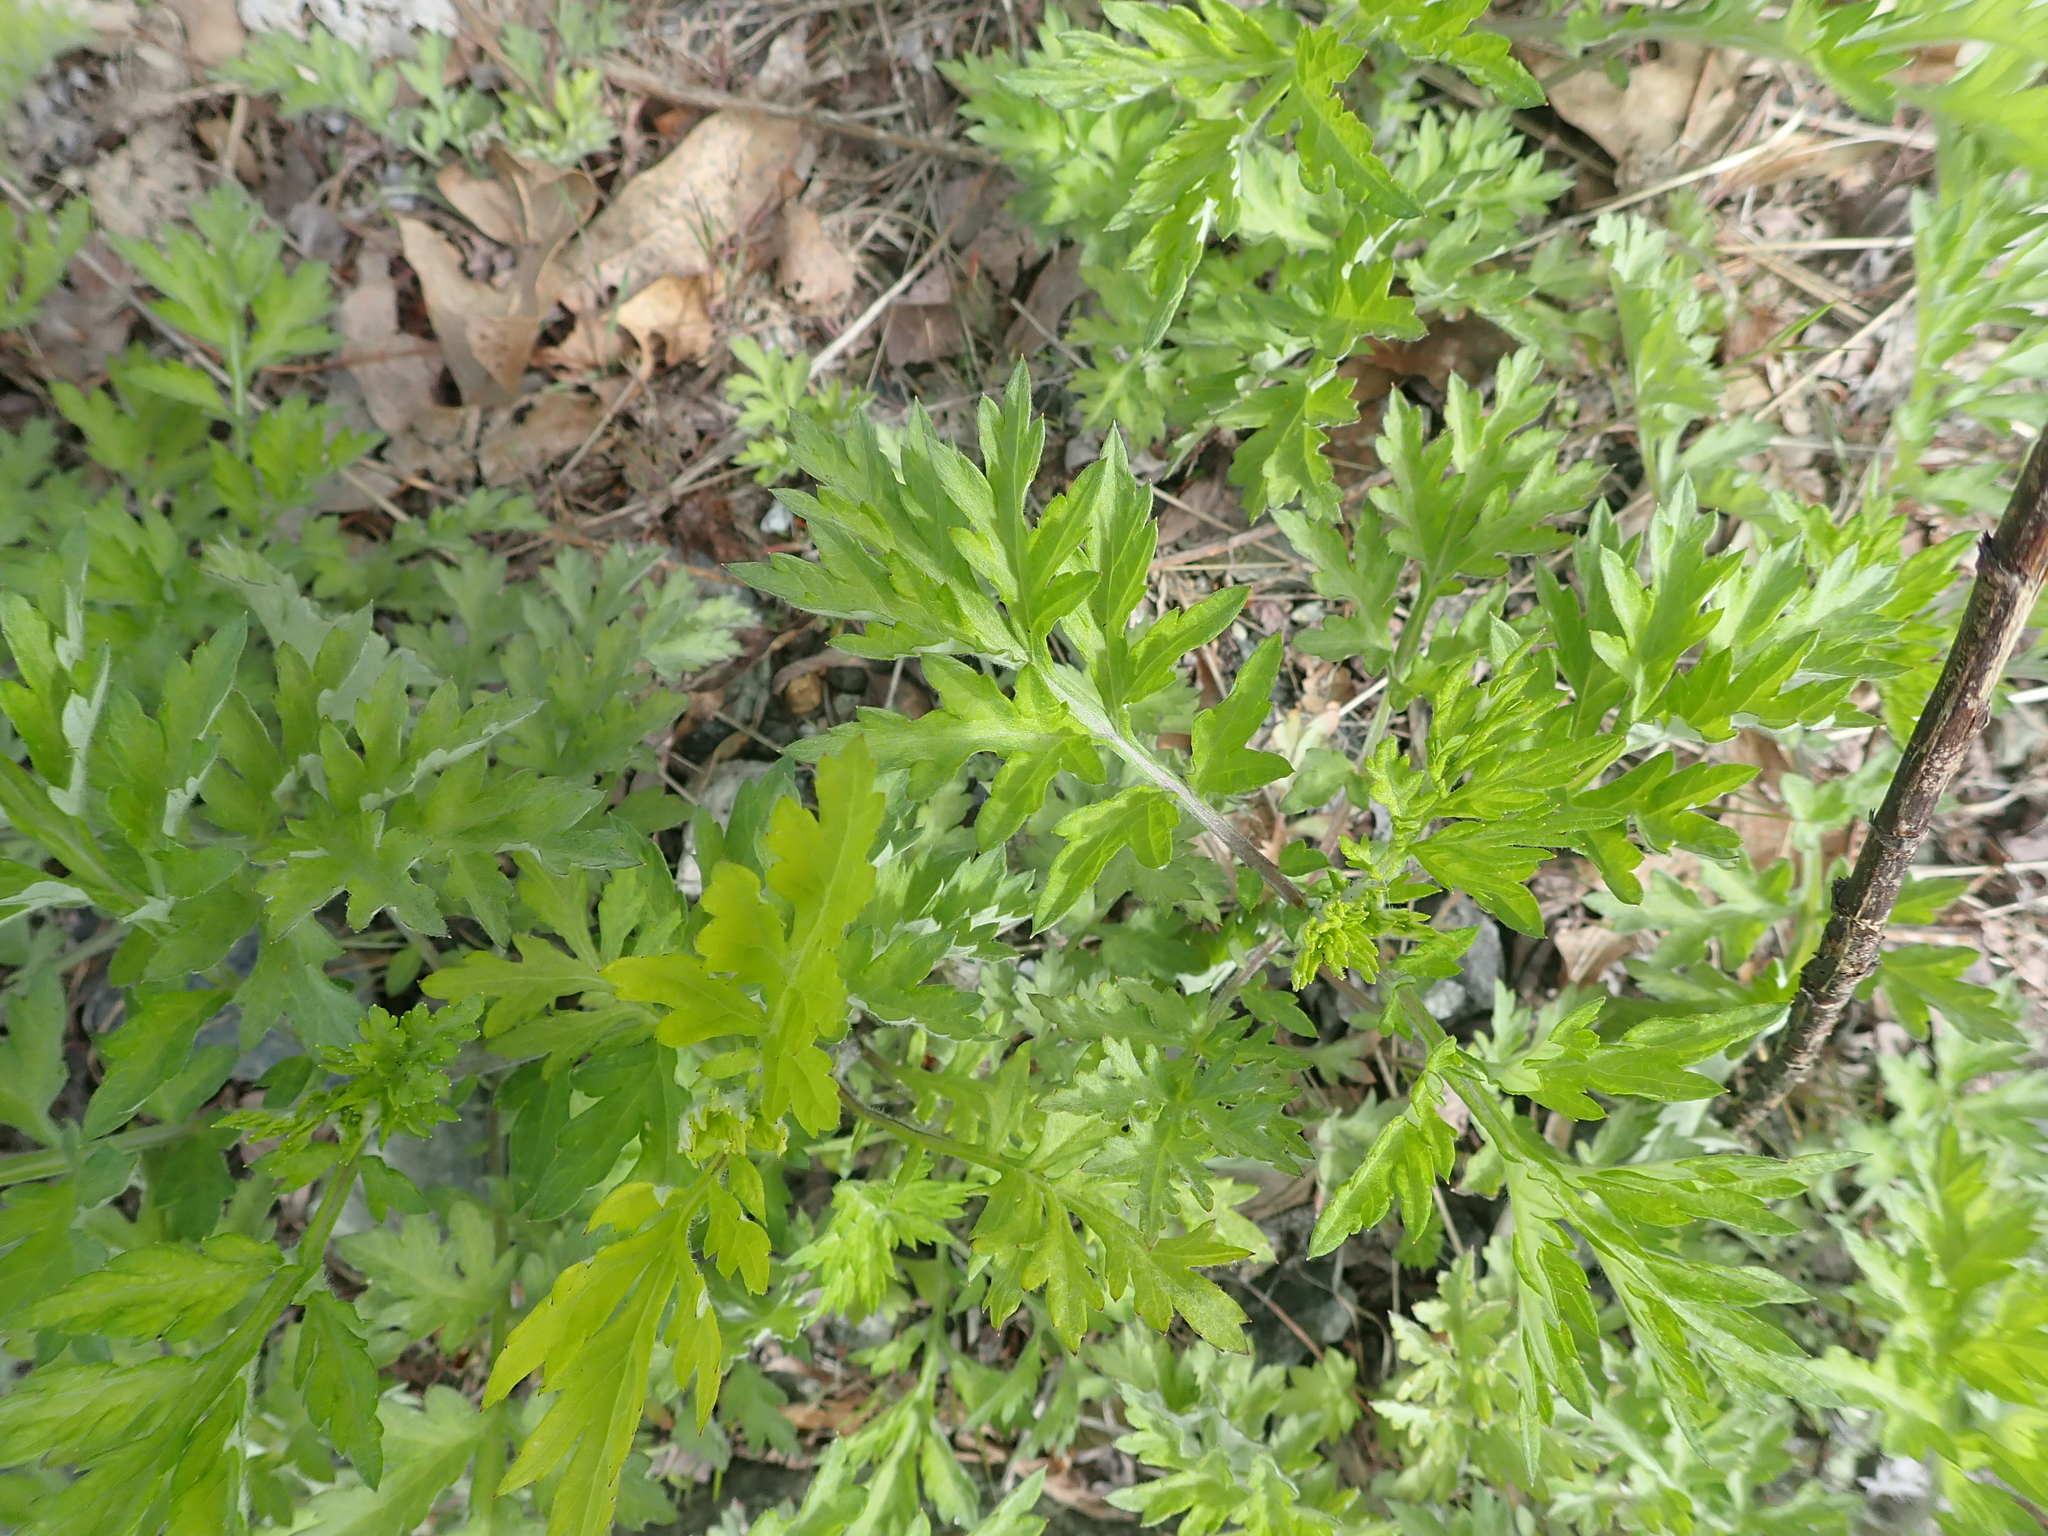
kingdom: Plantae
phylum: Tracheophyta
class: Magnoliopsida
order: Asterales
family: Asteraceae
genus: Artemisia
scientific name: Artemisia vulgaris
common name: Mugwort
